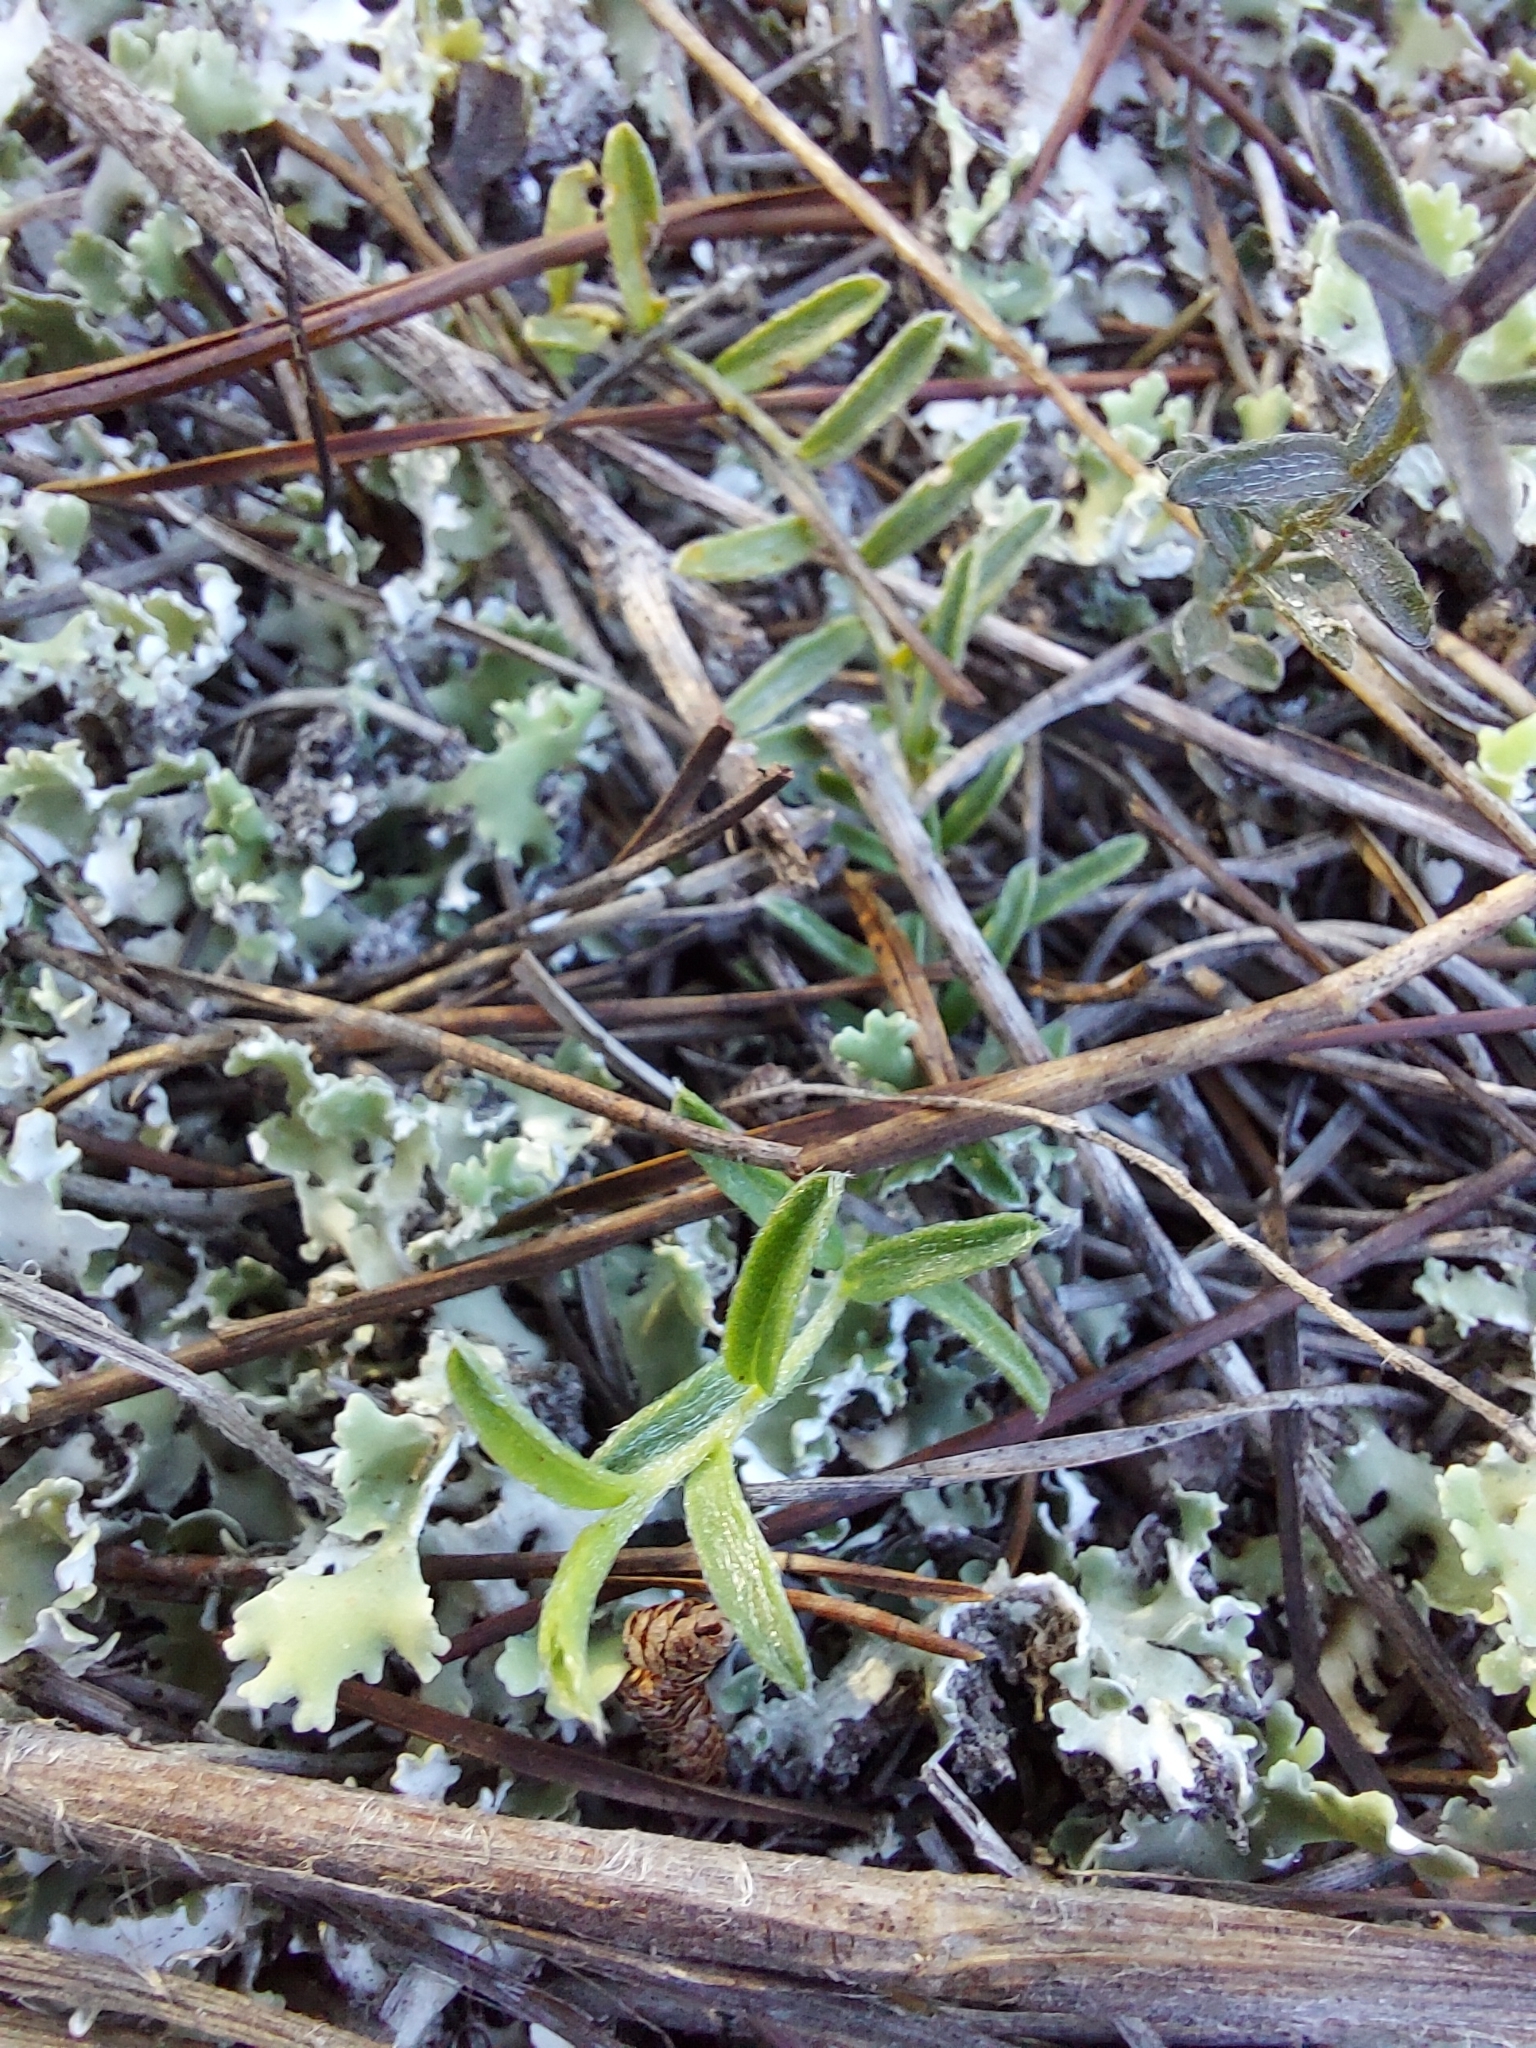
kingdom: Plantae
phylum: Tracheophyta
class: Magnoliopsida
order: Solanales
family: Convolvulaceae
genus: Stylisma
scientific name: Stylisma abdita
